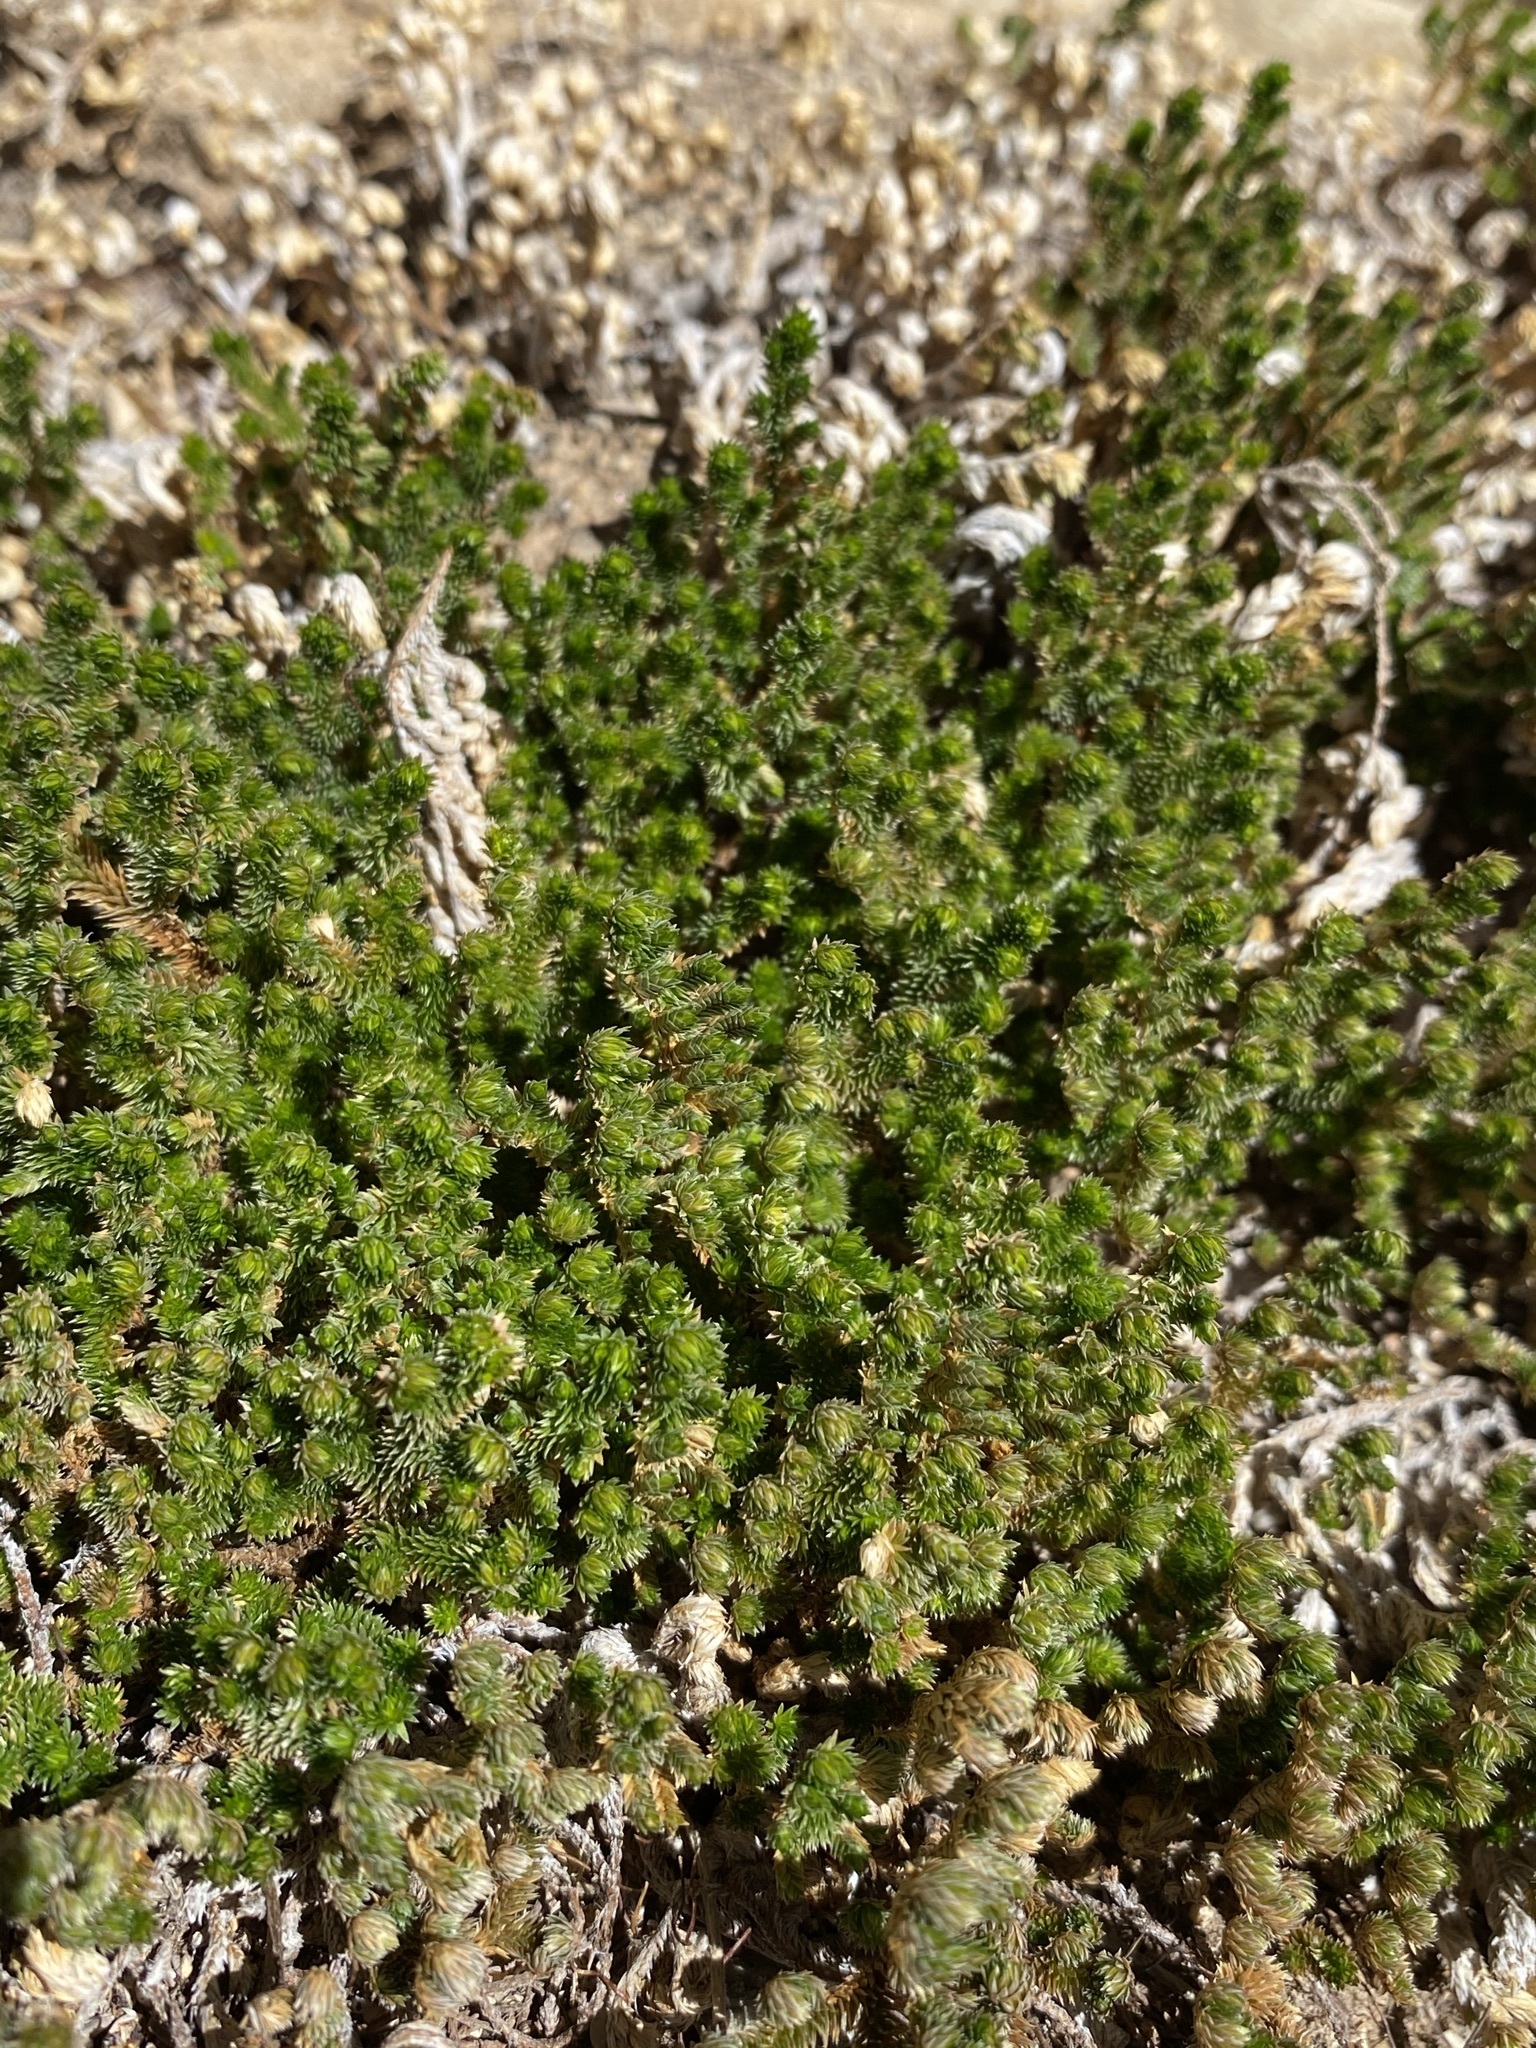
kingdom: Plantae
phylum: Tracheophyta
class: Lycopodiopsida
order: Selaginellales
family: Selaginellaceae
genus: Selaginella
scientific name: Selaginella arizonica
